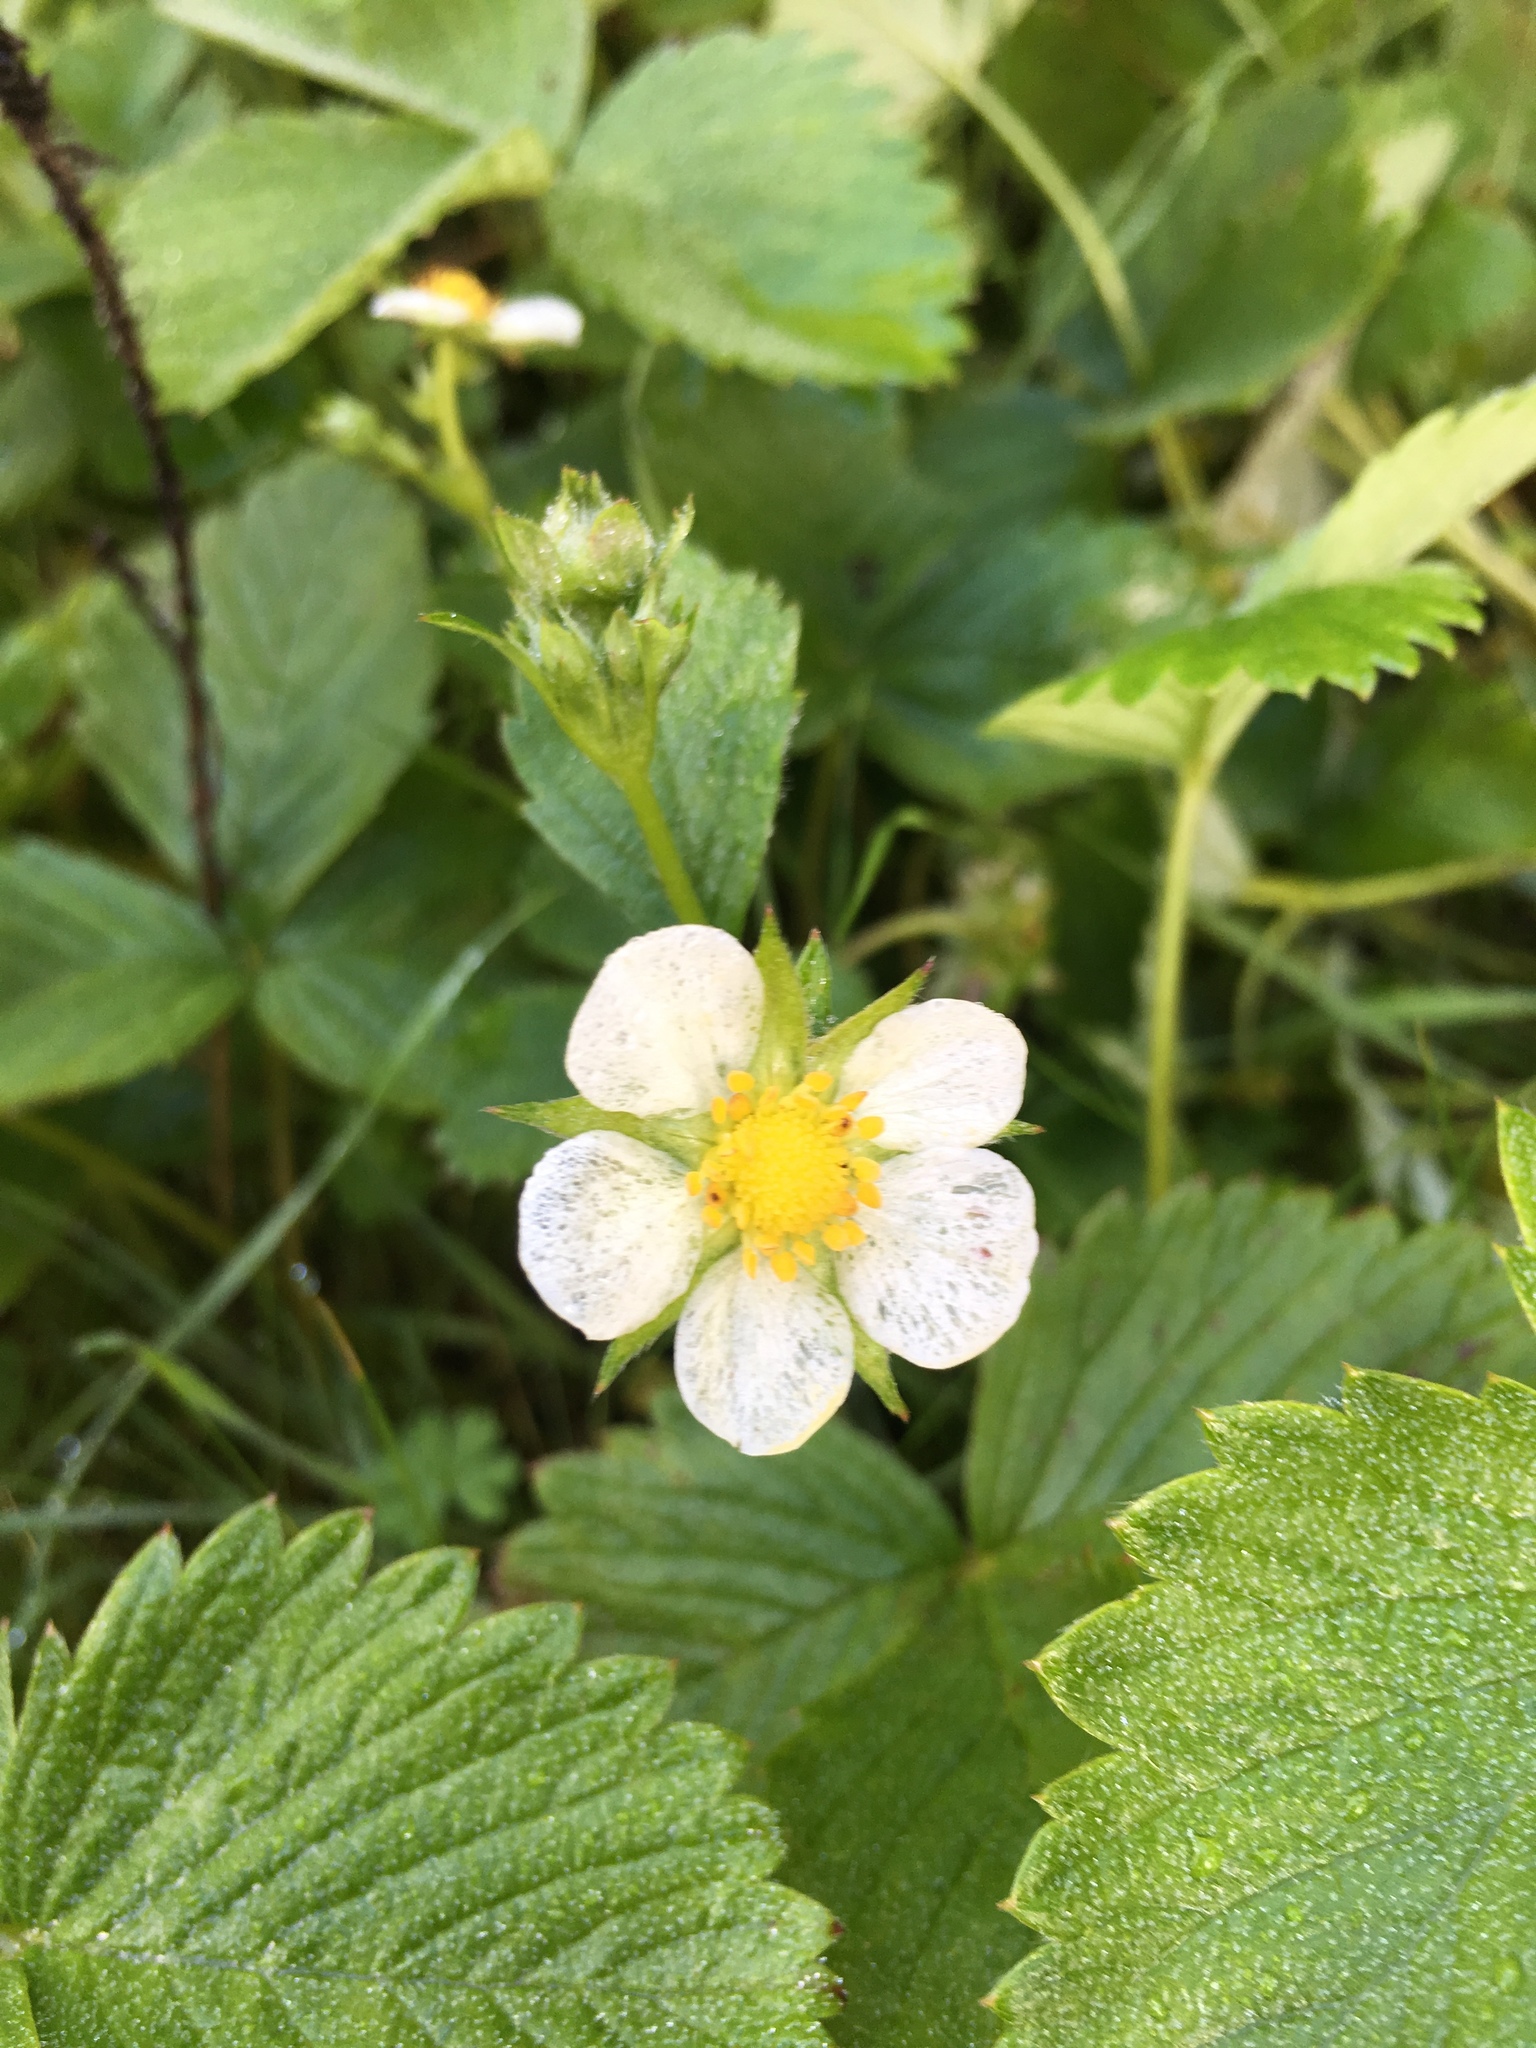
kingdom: Plantae
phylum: Tracheophyta
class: Magnoliopsida
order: Rosales
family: Rosaceae
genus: Fragaria
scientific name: Fragaria vesca
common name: Wild strawberry
